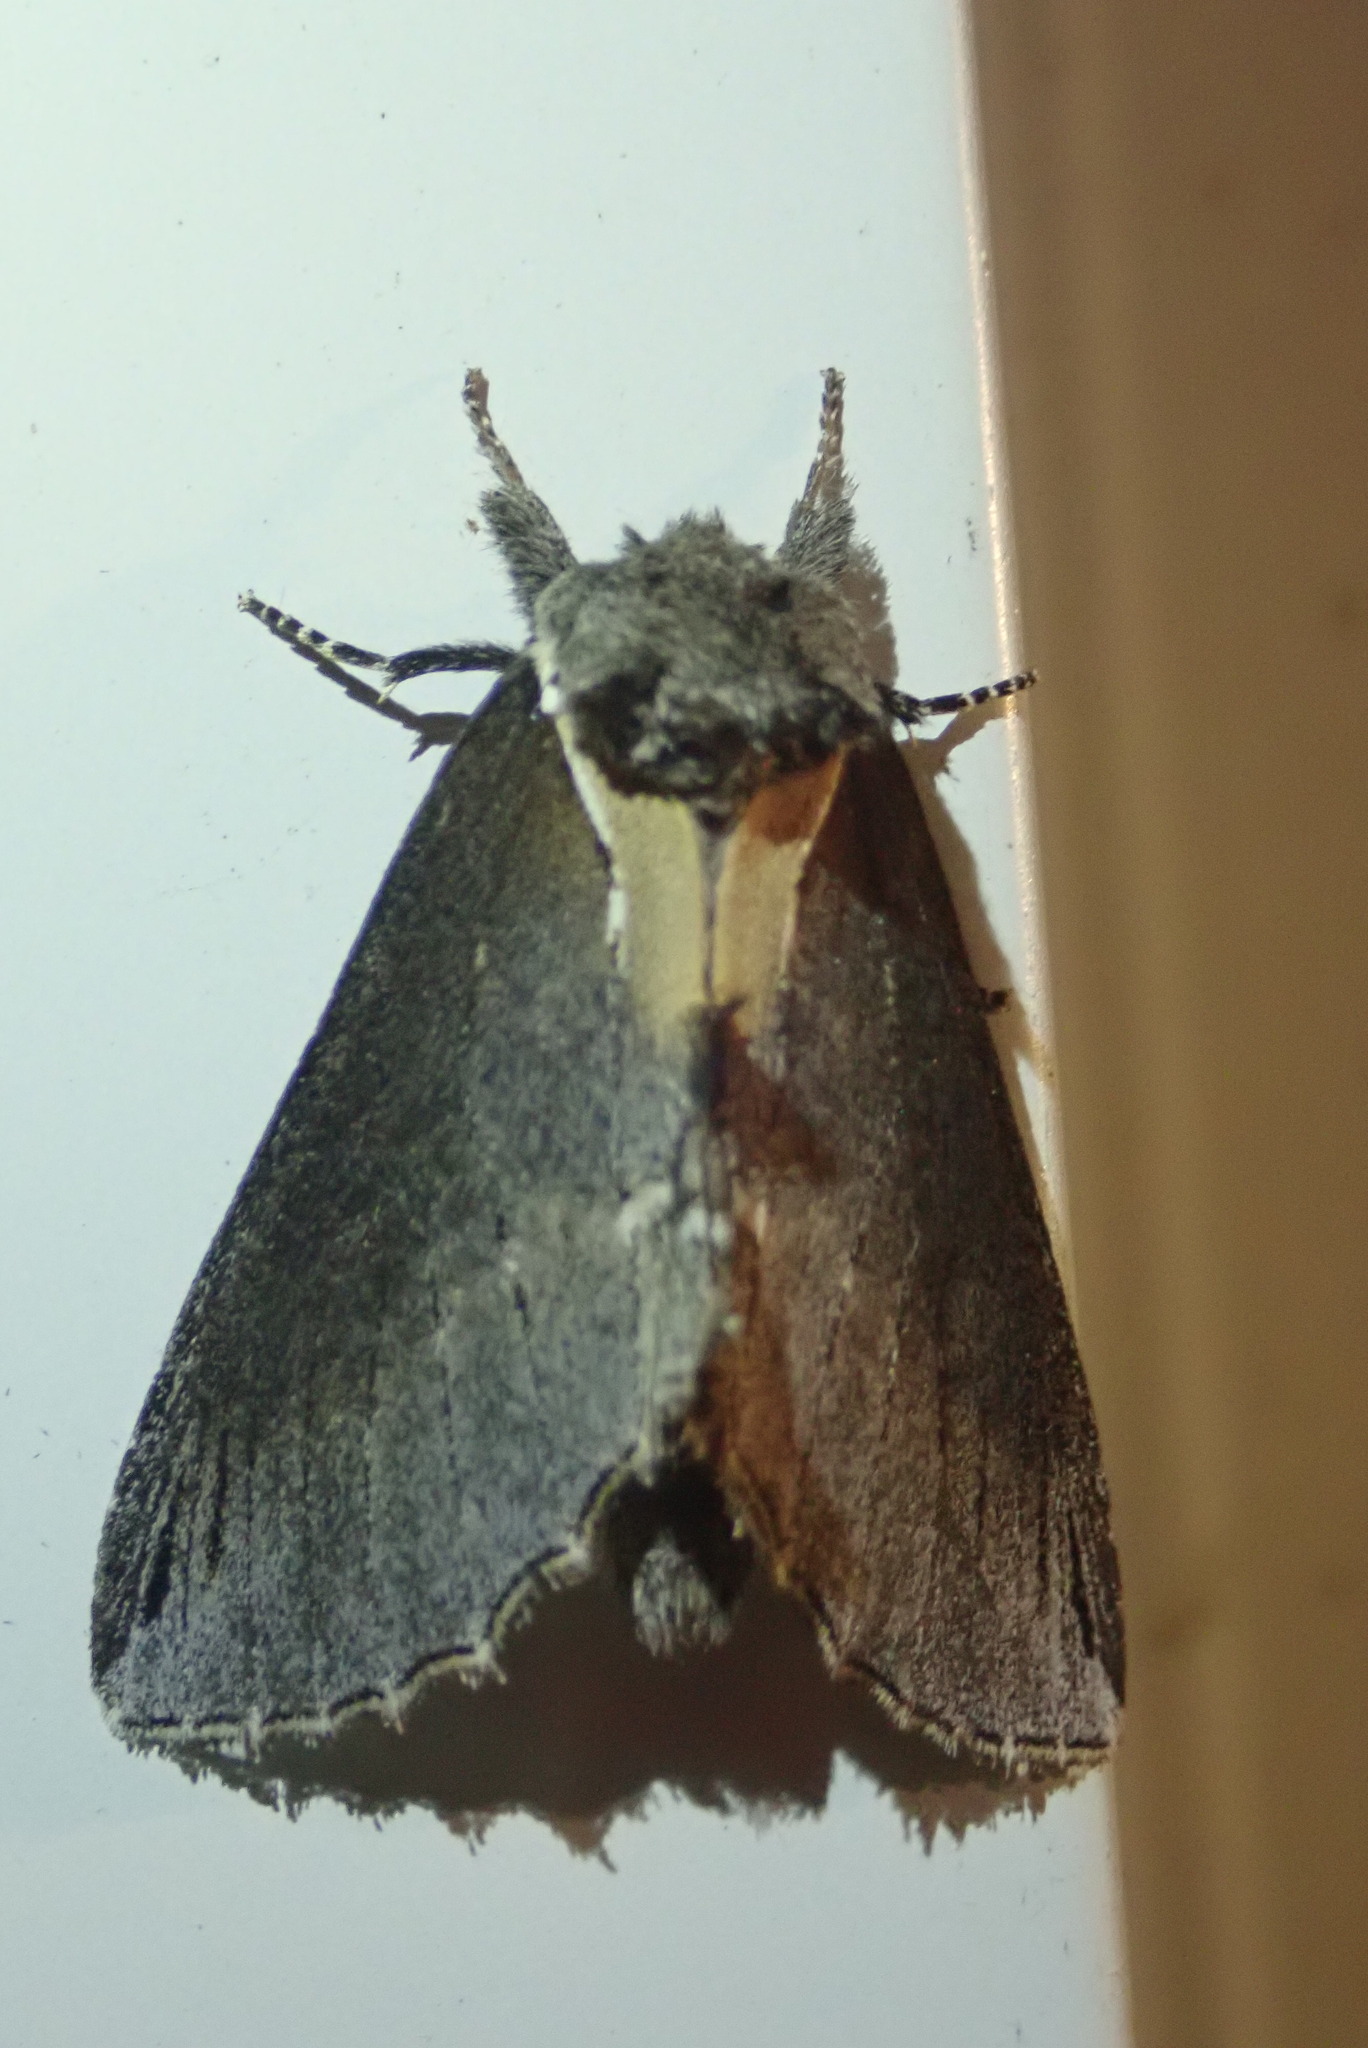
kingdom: Animalia
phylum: Arthropoda
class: Insecta
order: Lepidoptera
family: Notodontidae
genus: Pheosidea
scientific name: Pheosidea elegans
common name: Elegant prominent
